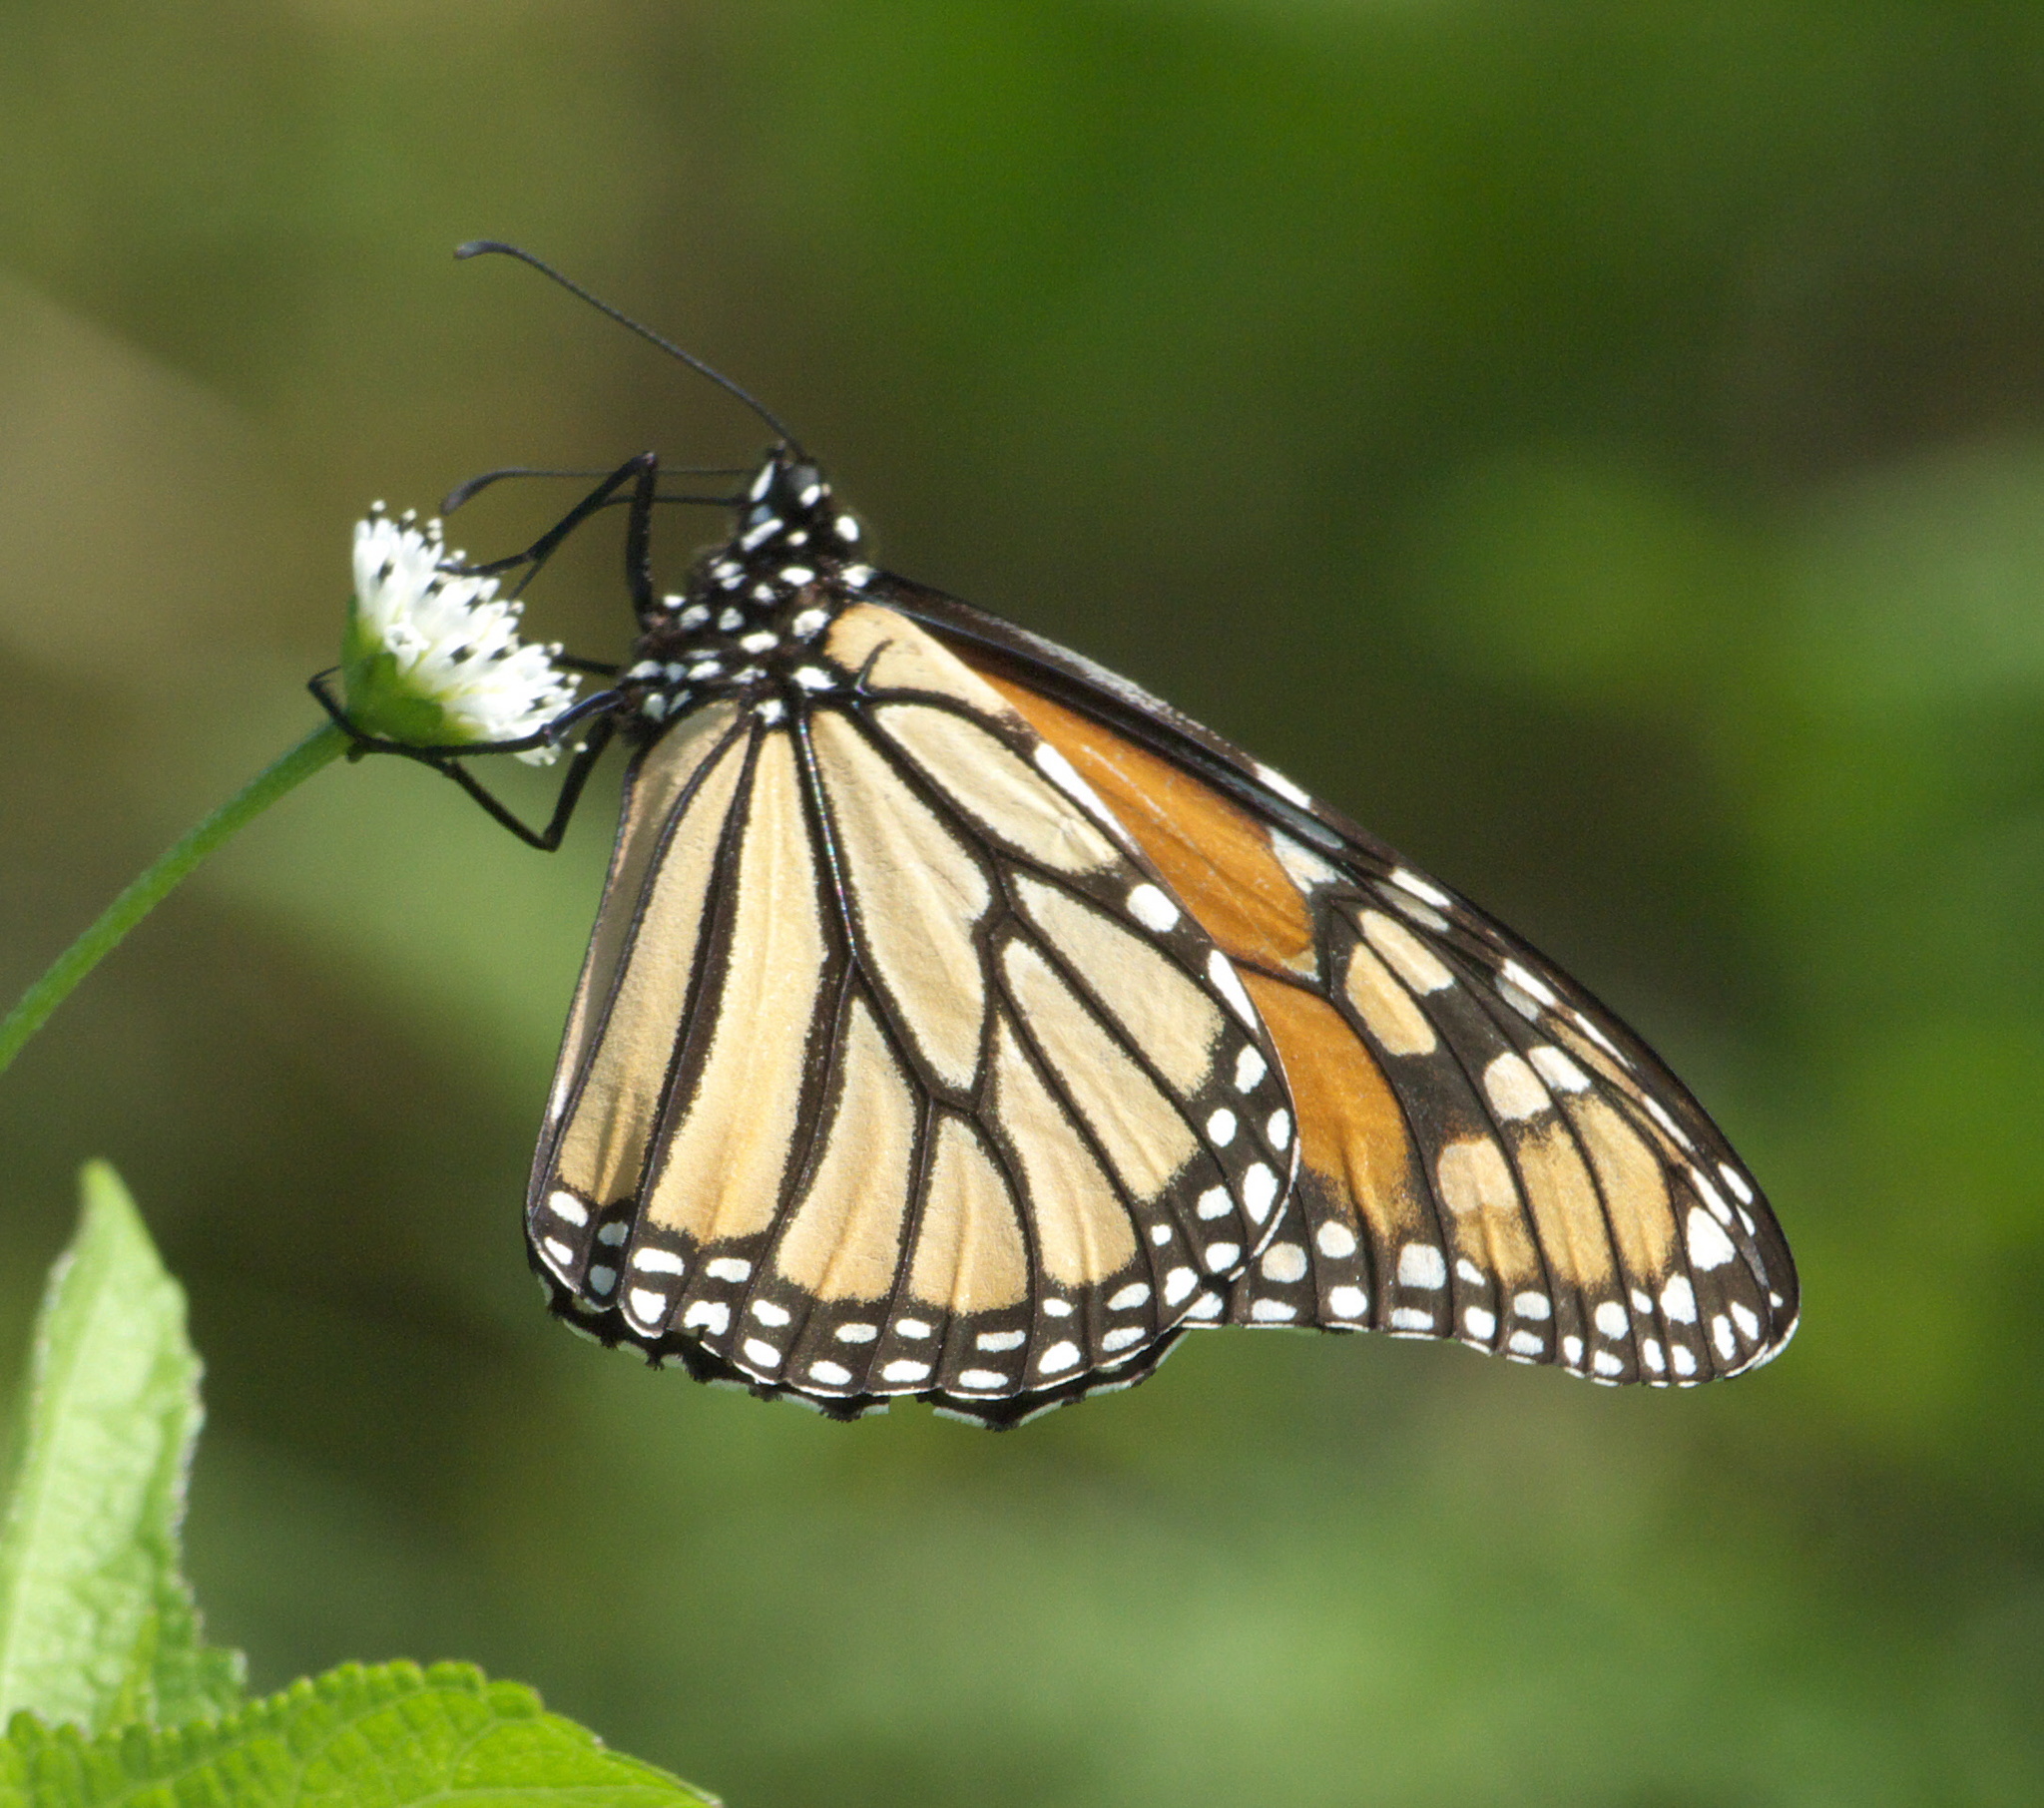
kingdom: Animalia
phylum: Arthropoda
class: Insecta
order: Lepidoptera
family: Nymphalidae
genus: Danaus
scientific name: Danaus plexippus
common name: Monarch
